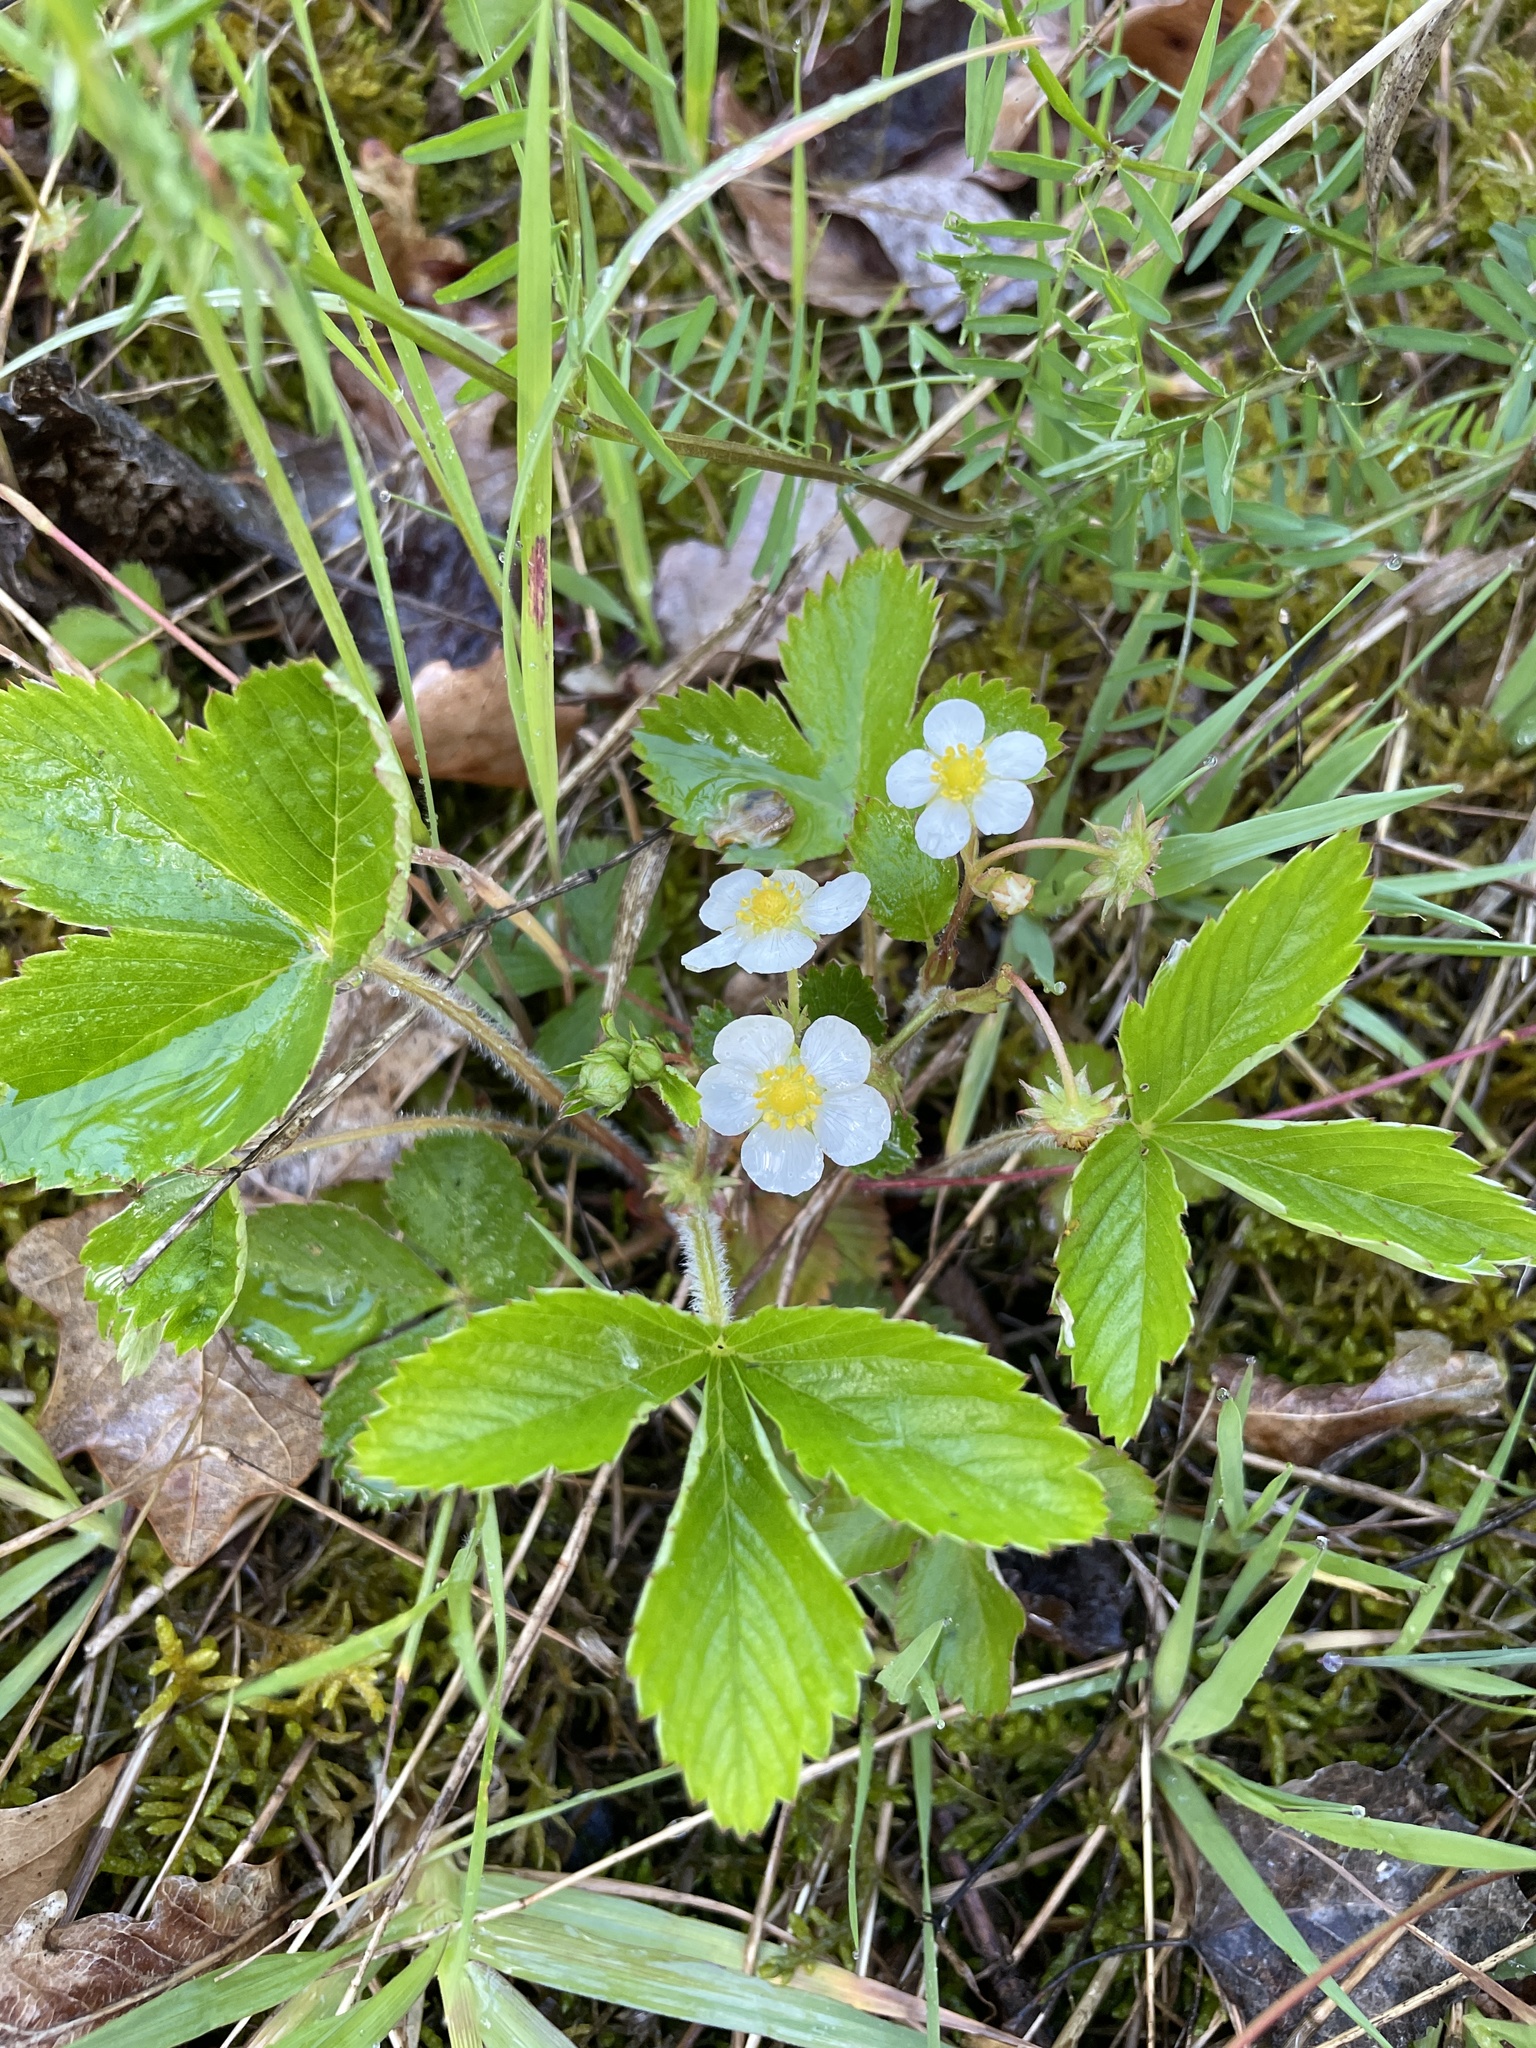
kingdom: Plantae
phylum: Tracheophyta
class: Magnoliopsida
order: Rosales
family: Rosaceae
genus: Fragaria
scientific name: Fragaria vesca
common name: Wild strawberry
